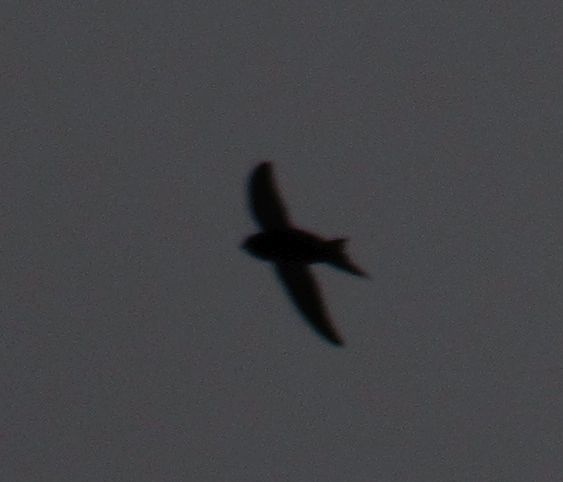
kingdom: Animalia
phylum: Chordata
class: Aves
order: Apodiformes
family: Apodidae
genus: Apus
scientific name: Apus apus
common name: Common swift
